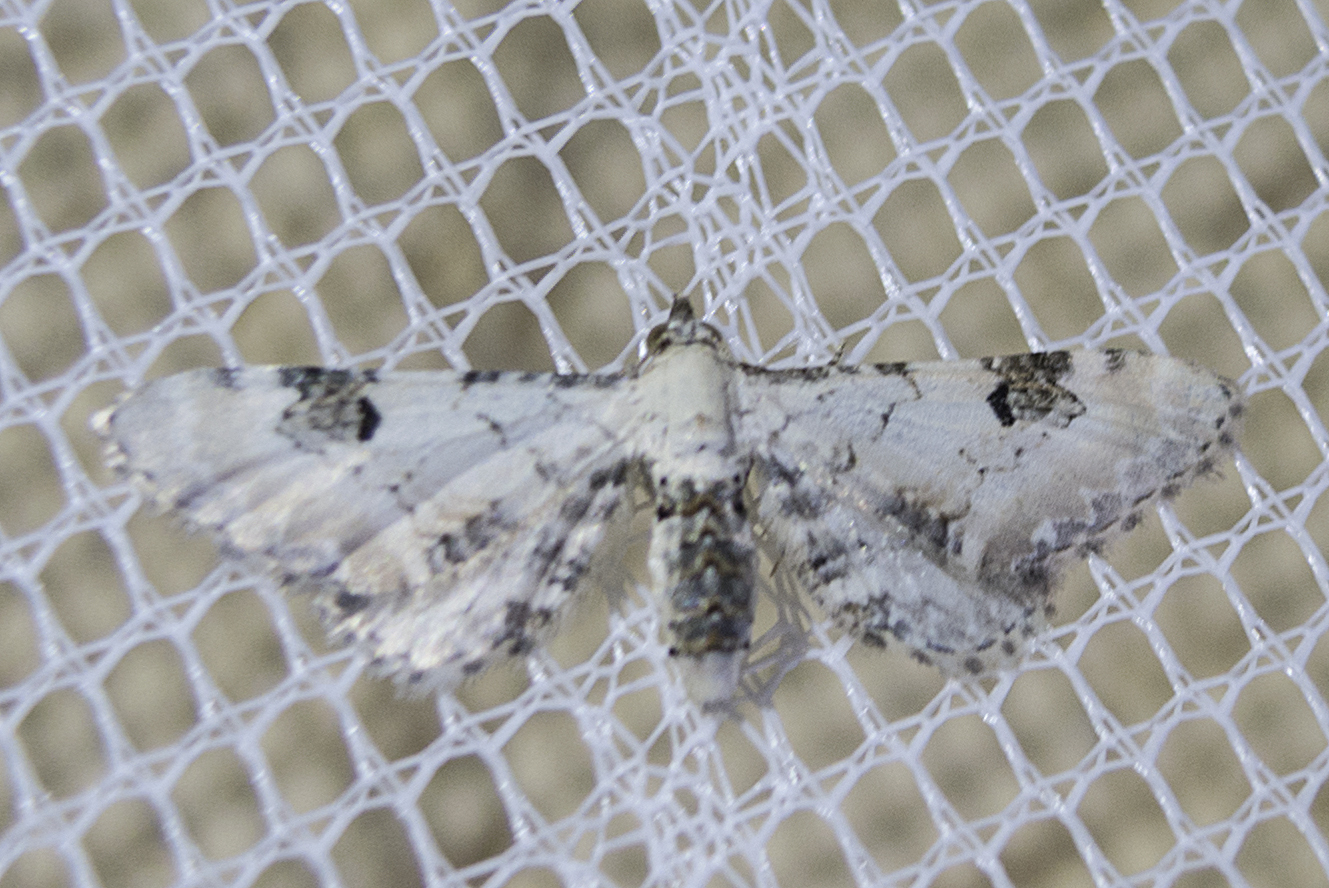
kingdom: Animalia
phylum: Arthropoda
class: Insecta
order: Lepidoptera
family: Geometridae
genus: Eupithecia
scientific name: Eupithecia centaureata
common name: Lime-speck pug
